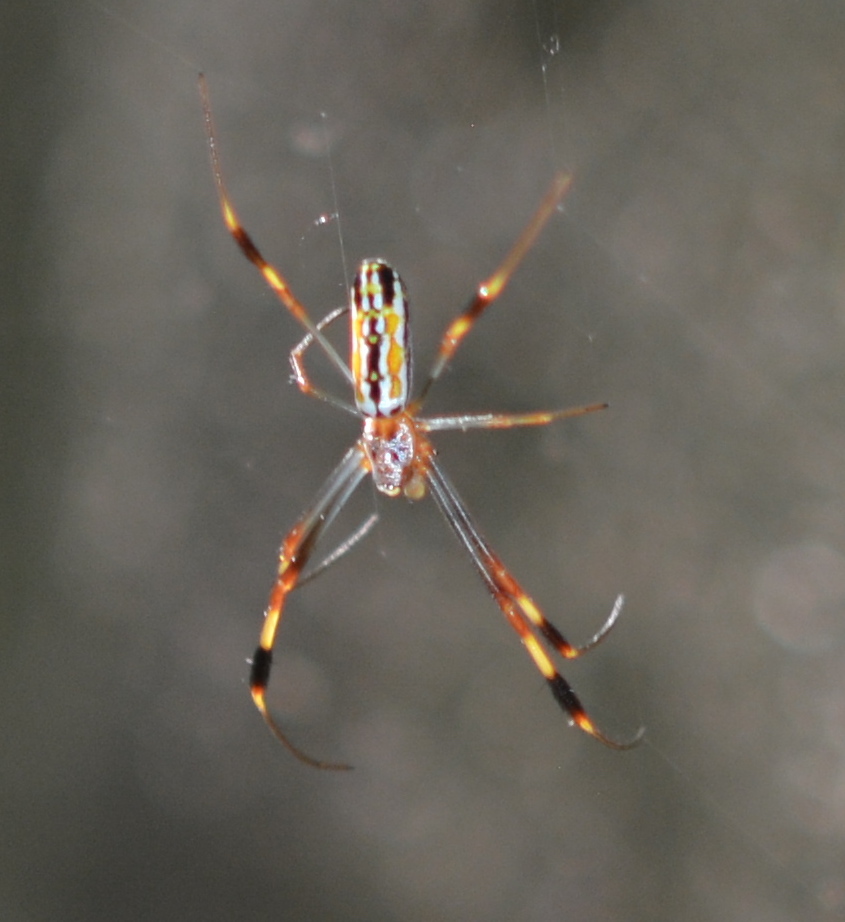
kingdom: Animalia
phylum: Arthropoda
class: Arachnida
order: Araneae
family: Araneidae
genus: Trichonephila
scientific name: Trichonephila clavipes
